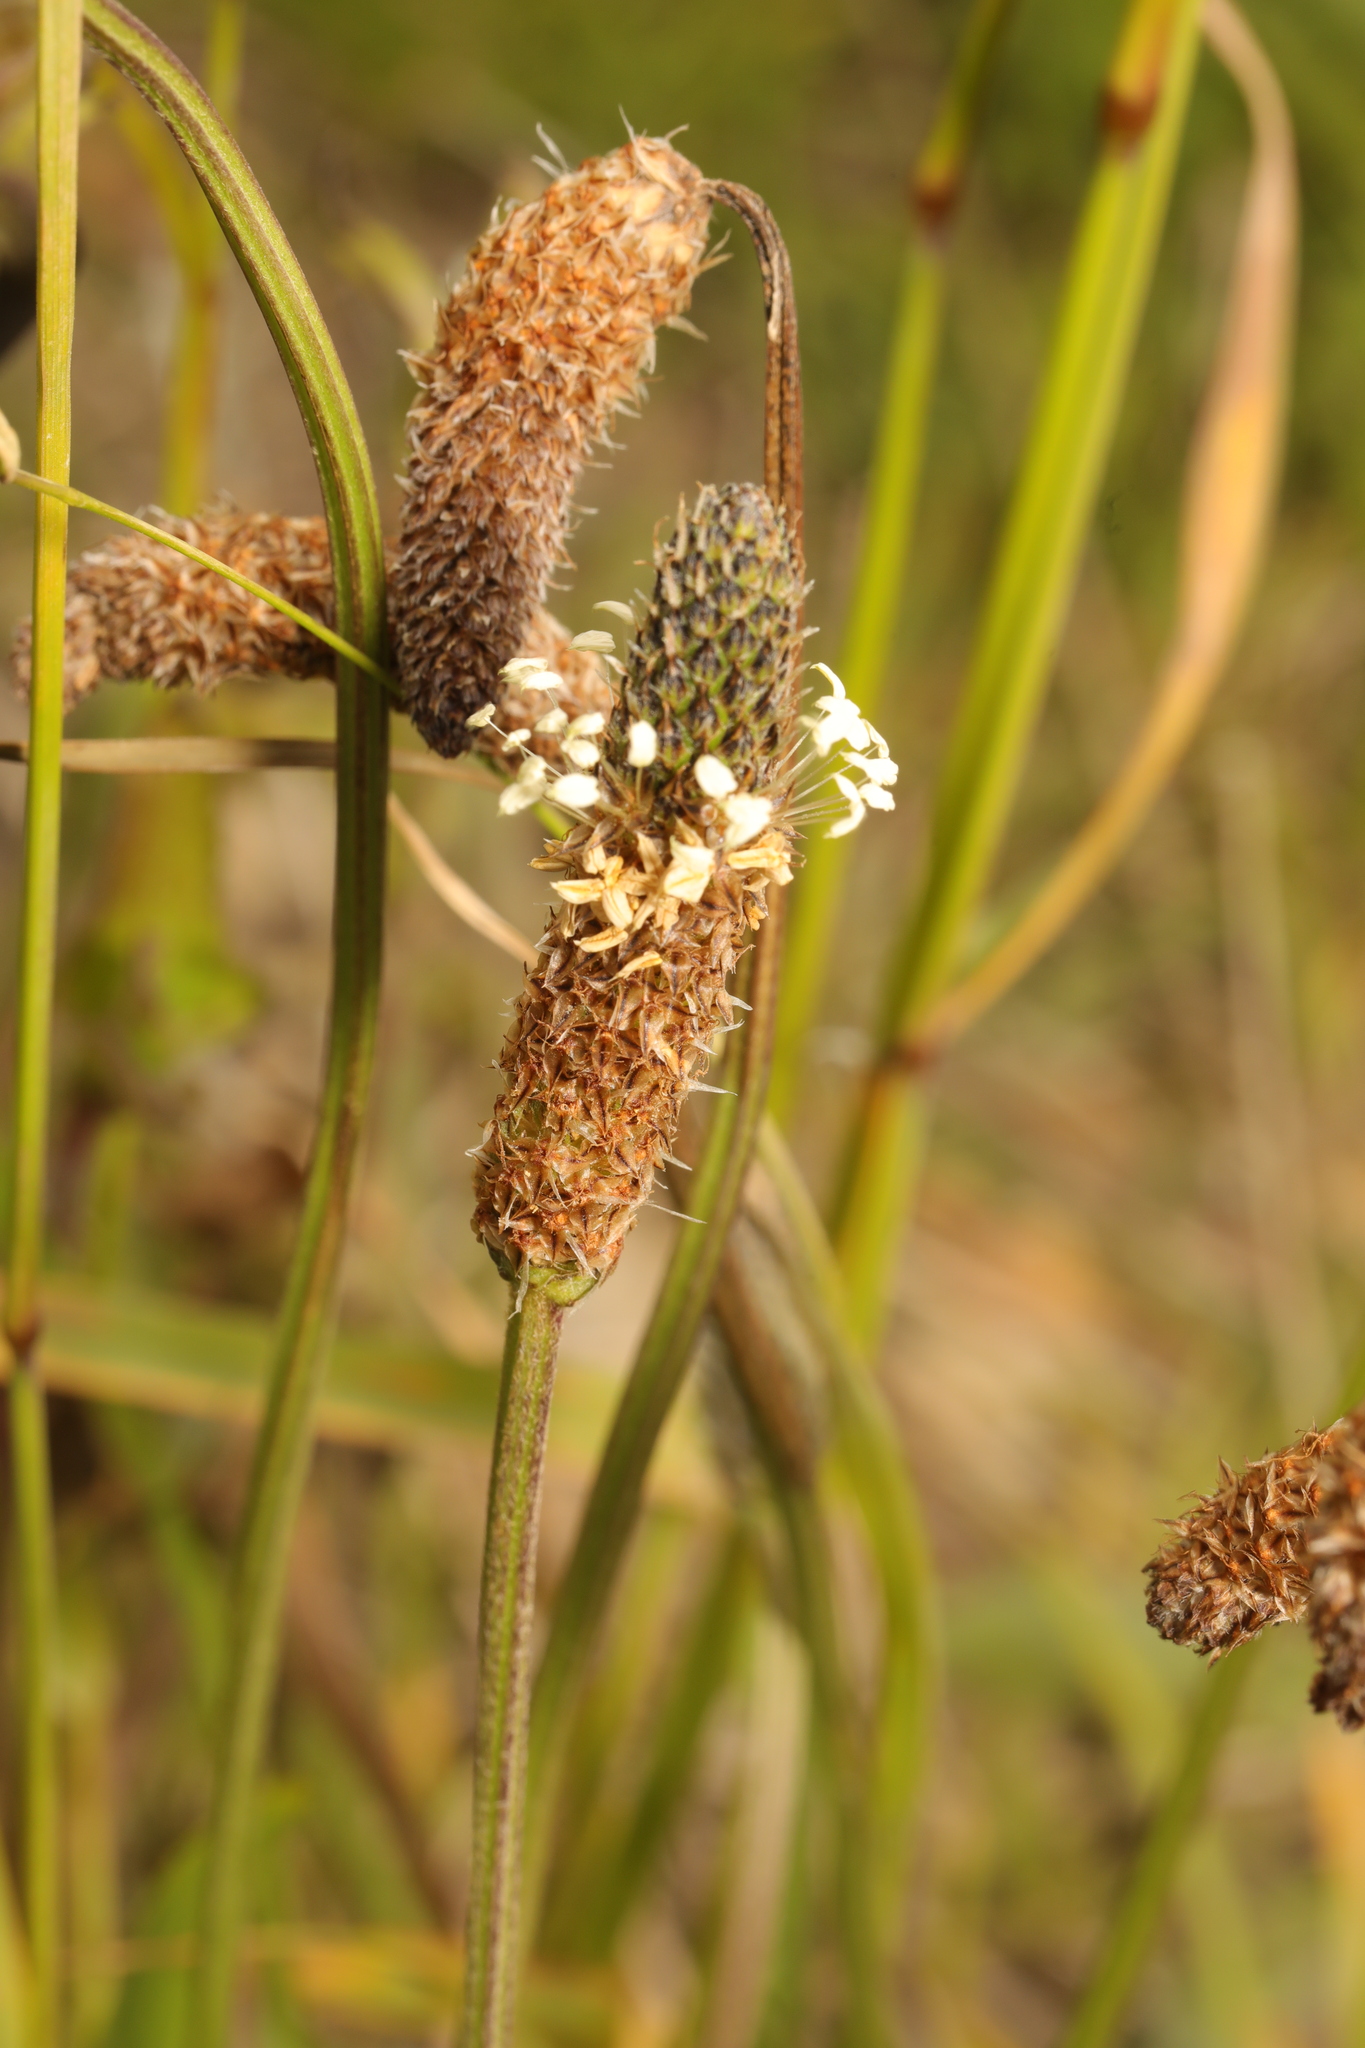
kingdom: Plantae
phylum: Tracheophyta
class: Magnoliopsida
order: Lamiales
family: Plantaginaceae
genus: Plantago
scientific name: Plantago lanceolata
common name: Ribwort plantain
